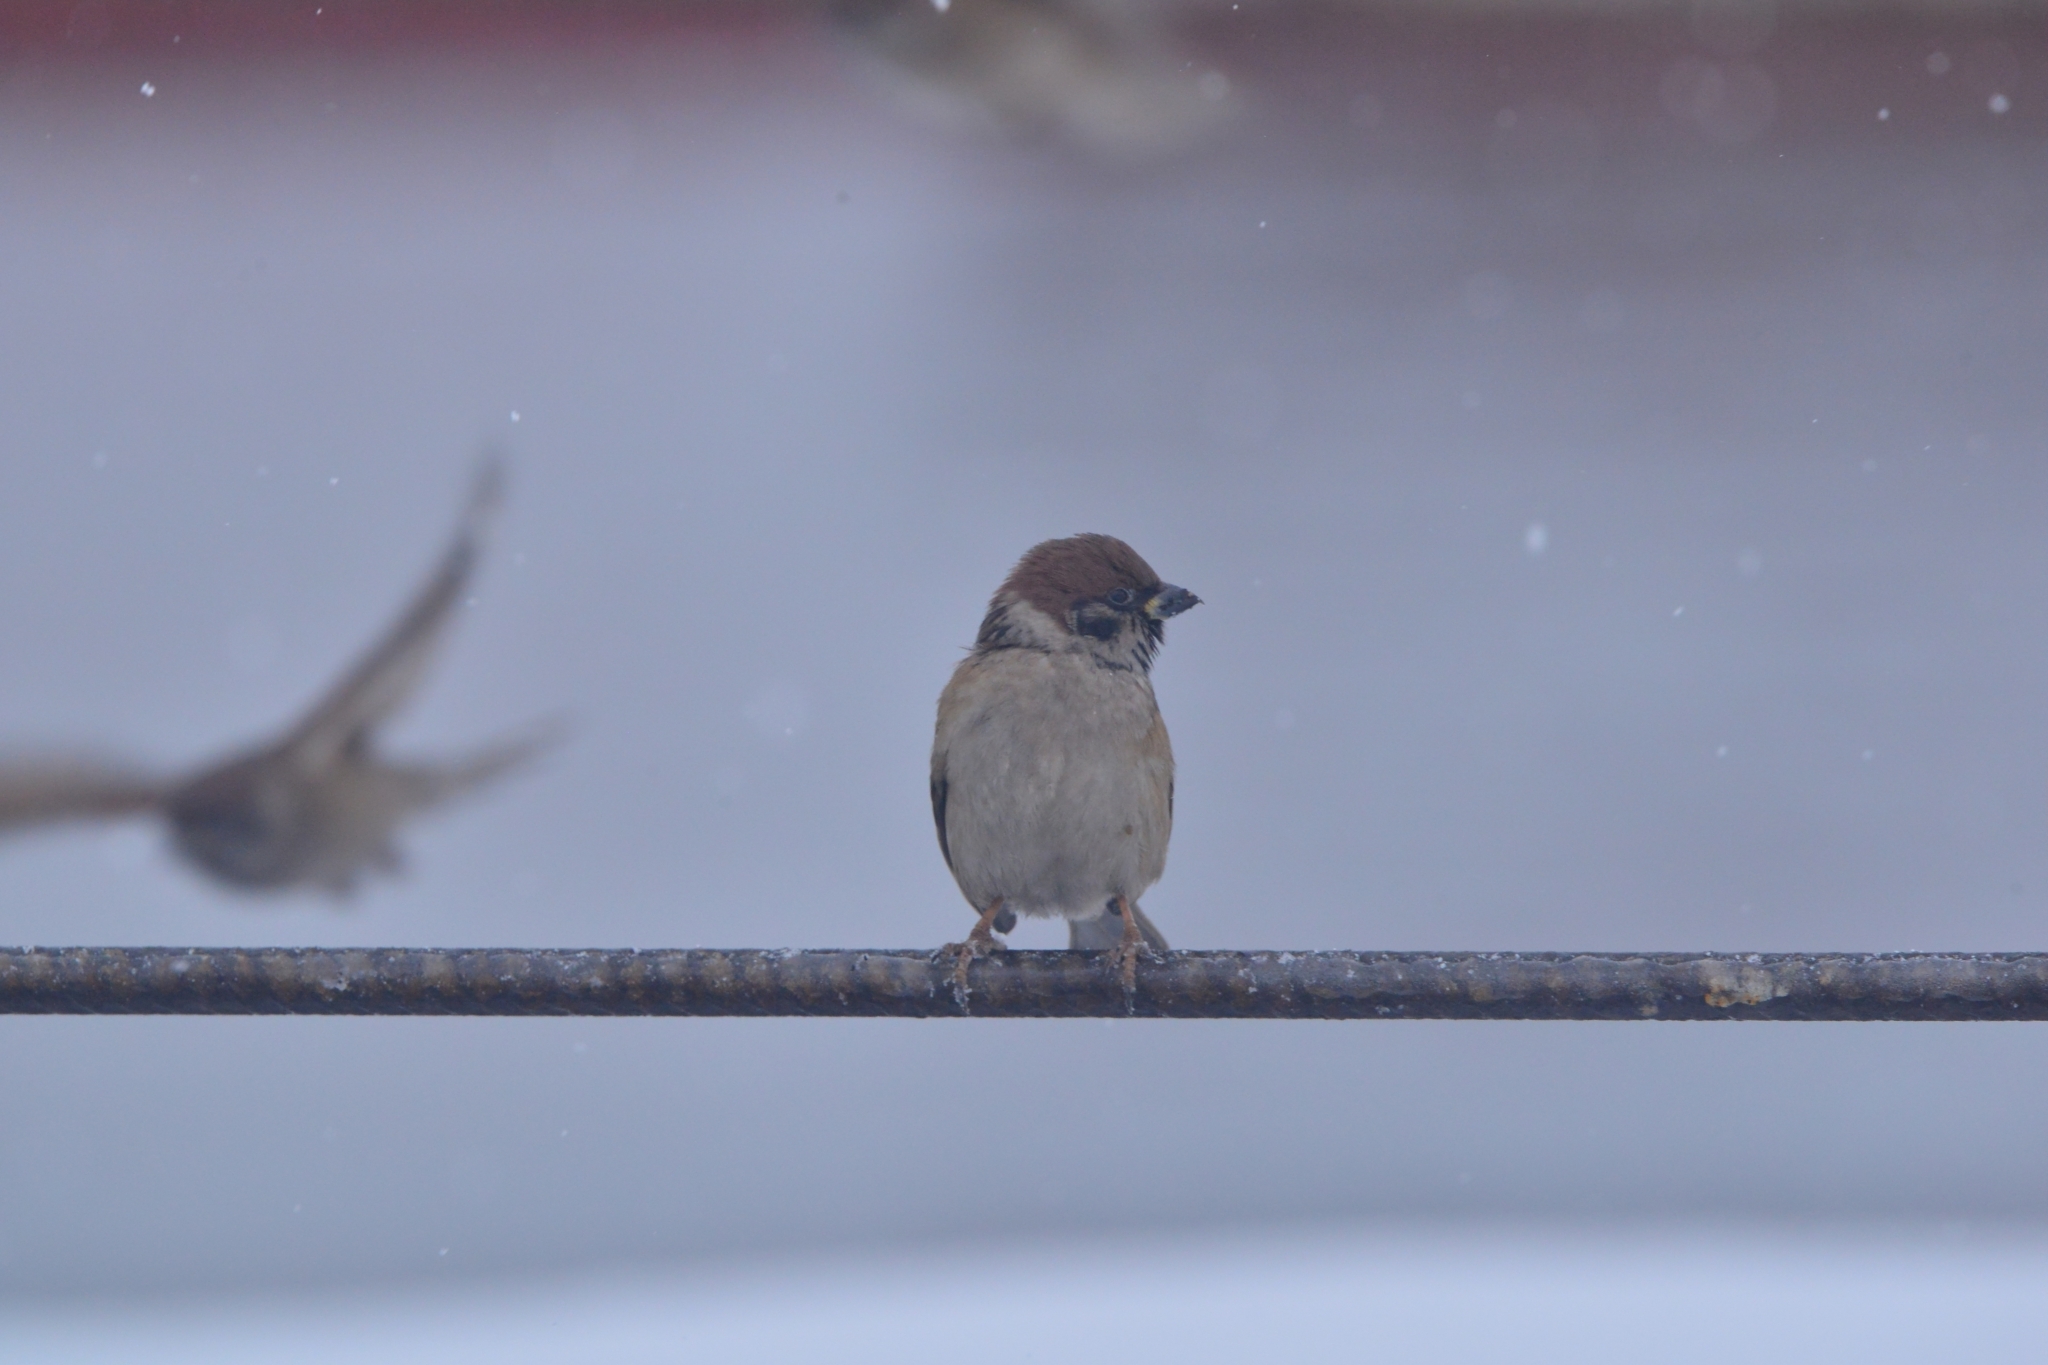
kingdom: Animalia
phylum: Chordata
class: Aves
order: Passeriformes
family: Passeridae
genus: Passer
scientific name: Passer montanus
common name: Eurasian tree sparrow
